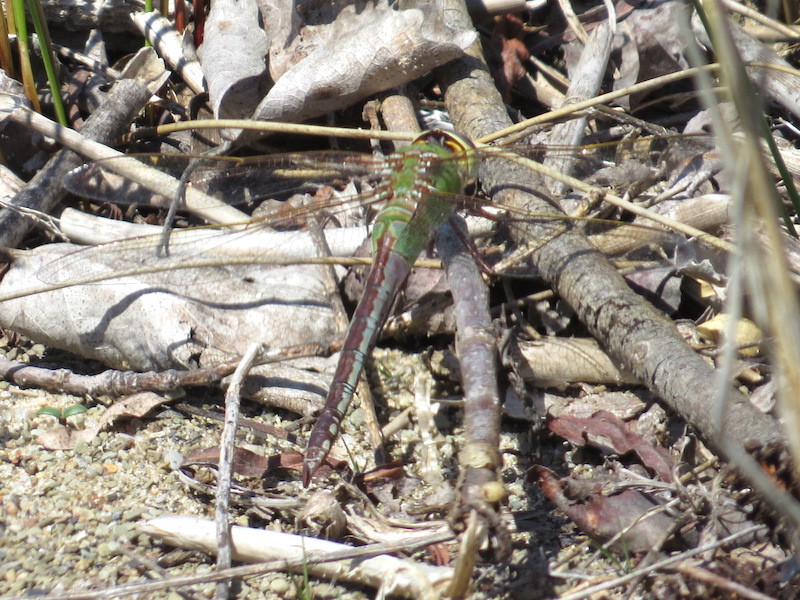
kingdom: Animalia
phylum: Arthropoda
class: Insecta
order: Odonata
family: Aeshnidae
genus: Anax
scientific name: Anax junius
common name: Common green darner
